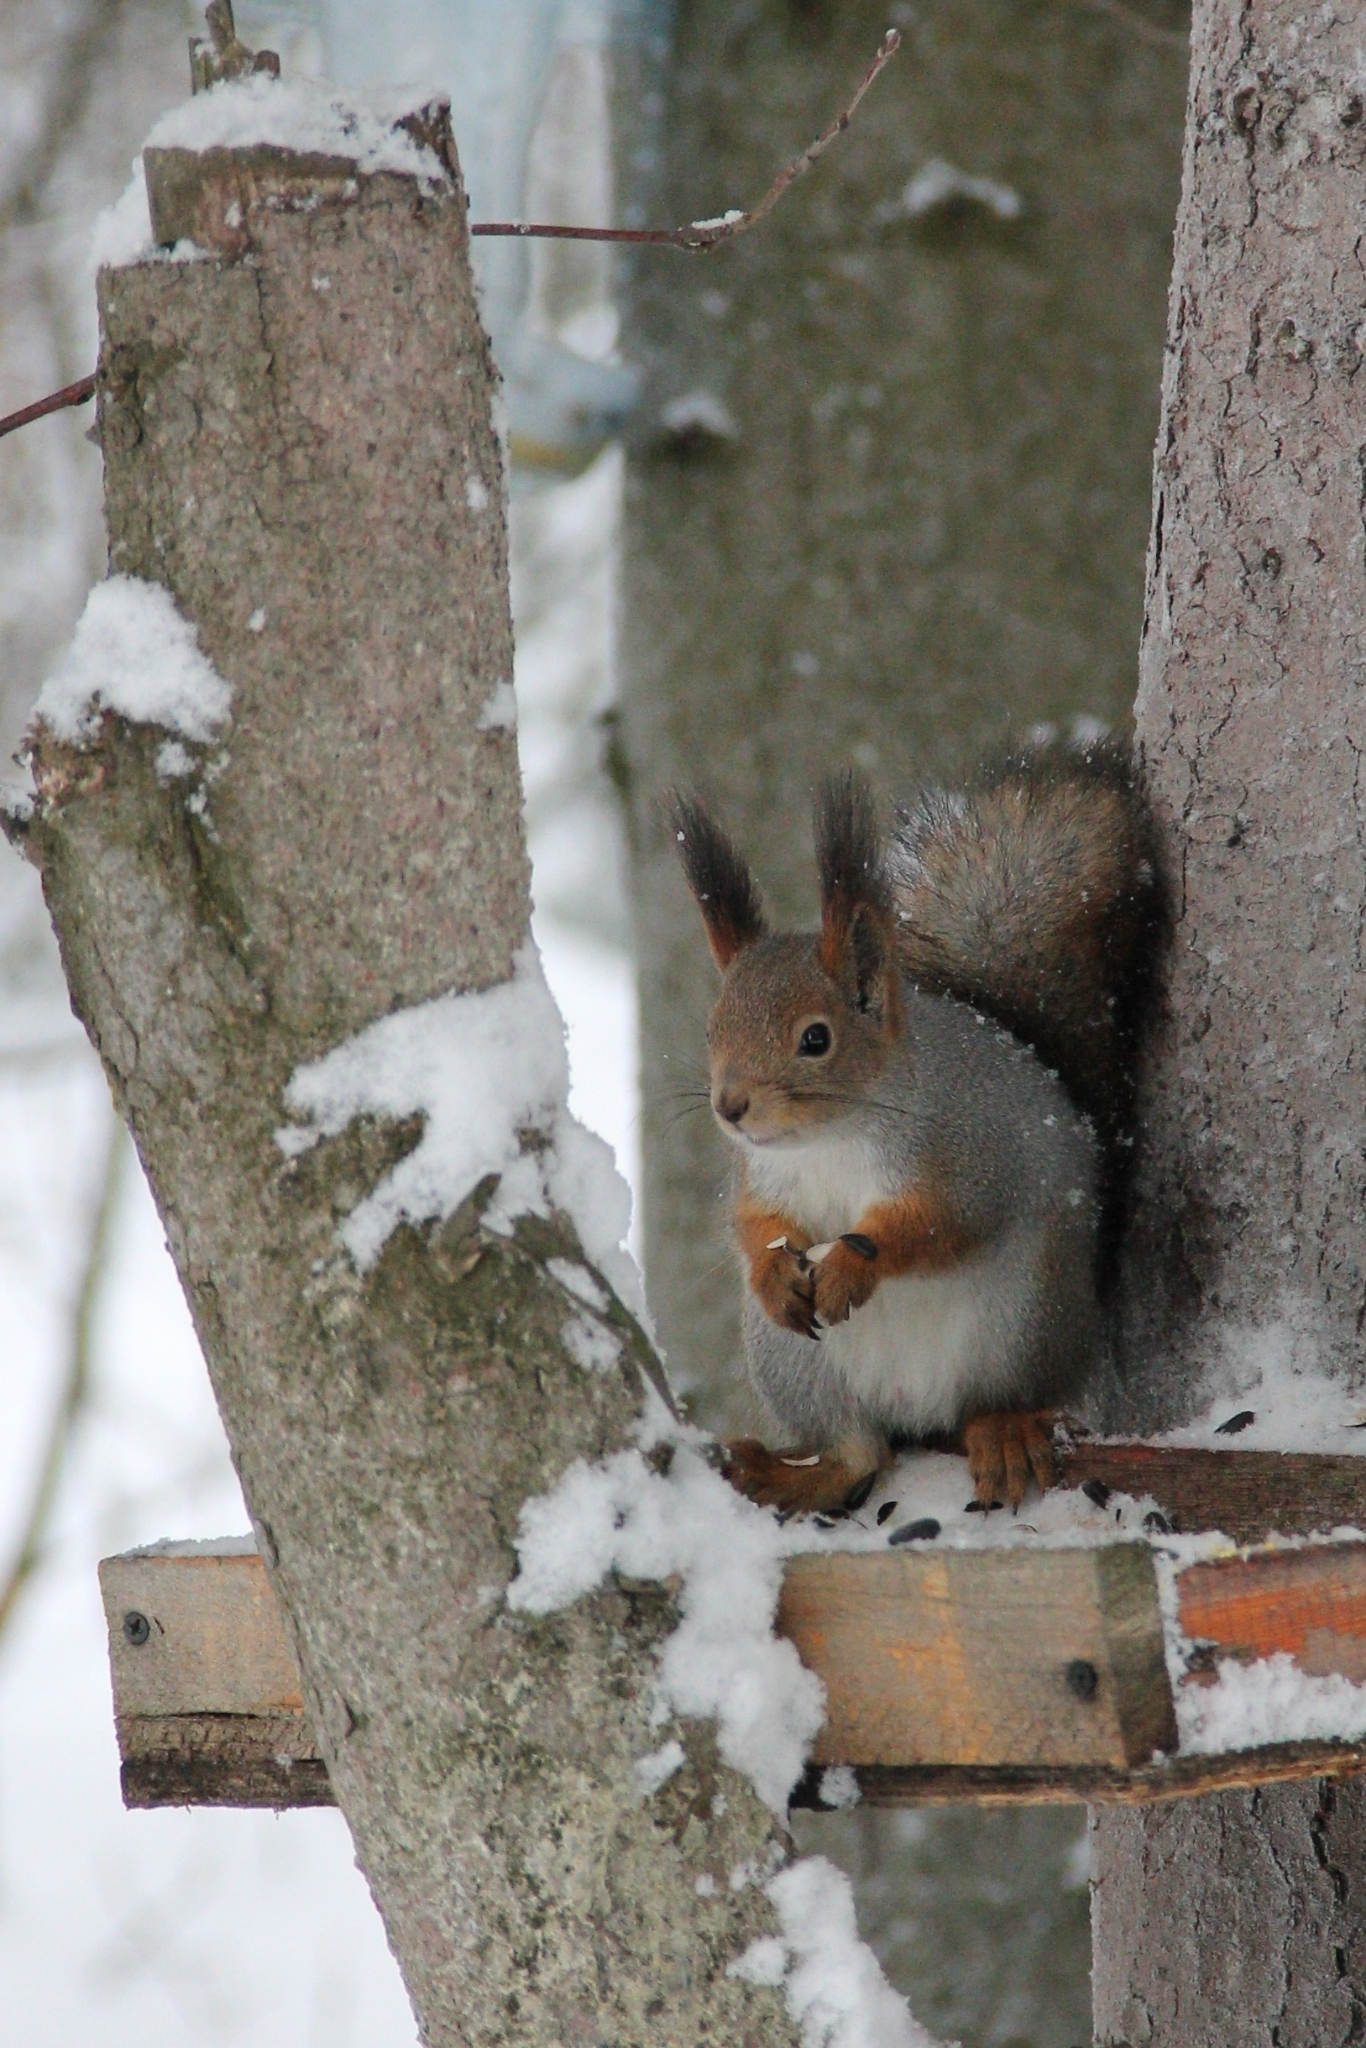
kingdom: Animalia
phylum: Chordata
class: Mammalia
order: Rodentia
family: Sciuridae
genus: Sciurus
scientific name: Sciurus vulgaris
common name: Eurasian red squirrel
